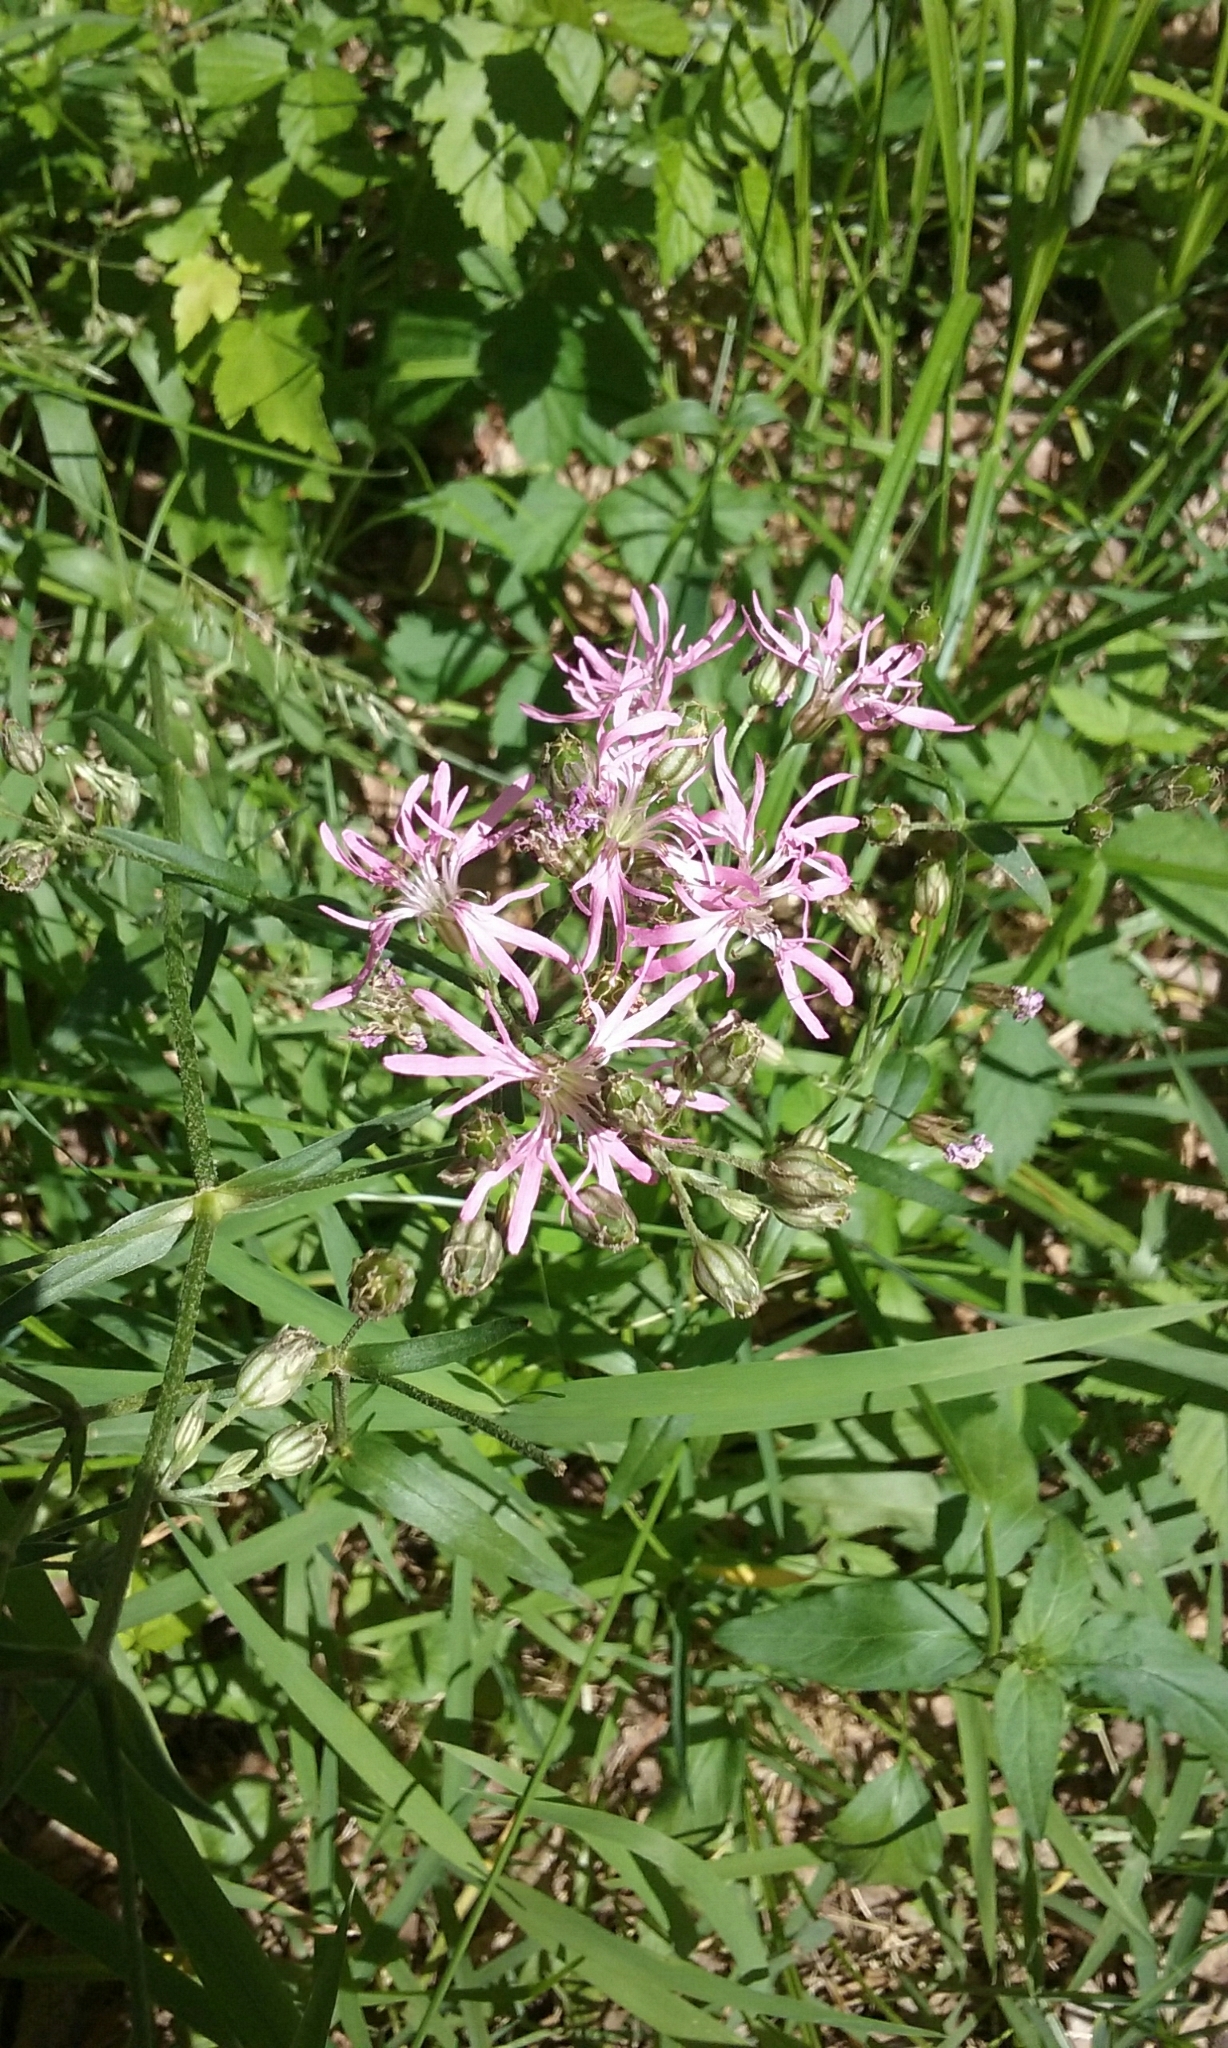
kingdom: Plantae
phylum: Tracheophyta
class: Magnoliopsida
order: Caryophyllales
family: Caryophyllaceae
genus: Silene
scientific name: Silene flos-cuculi
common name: Ragged-robin
